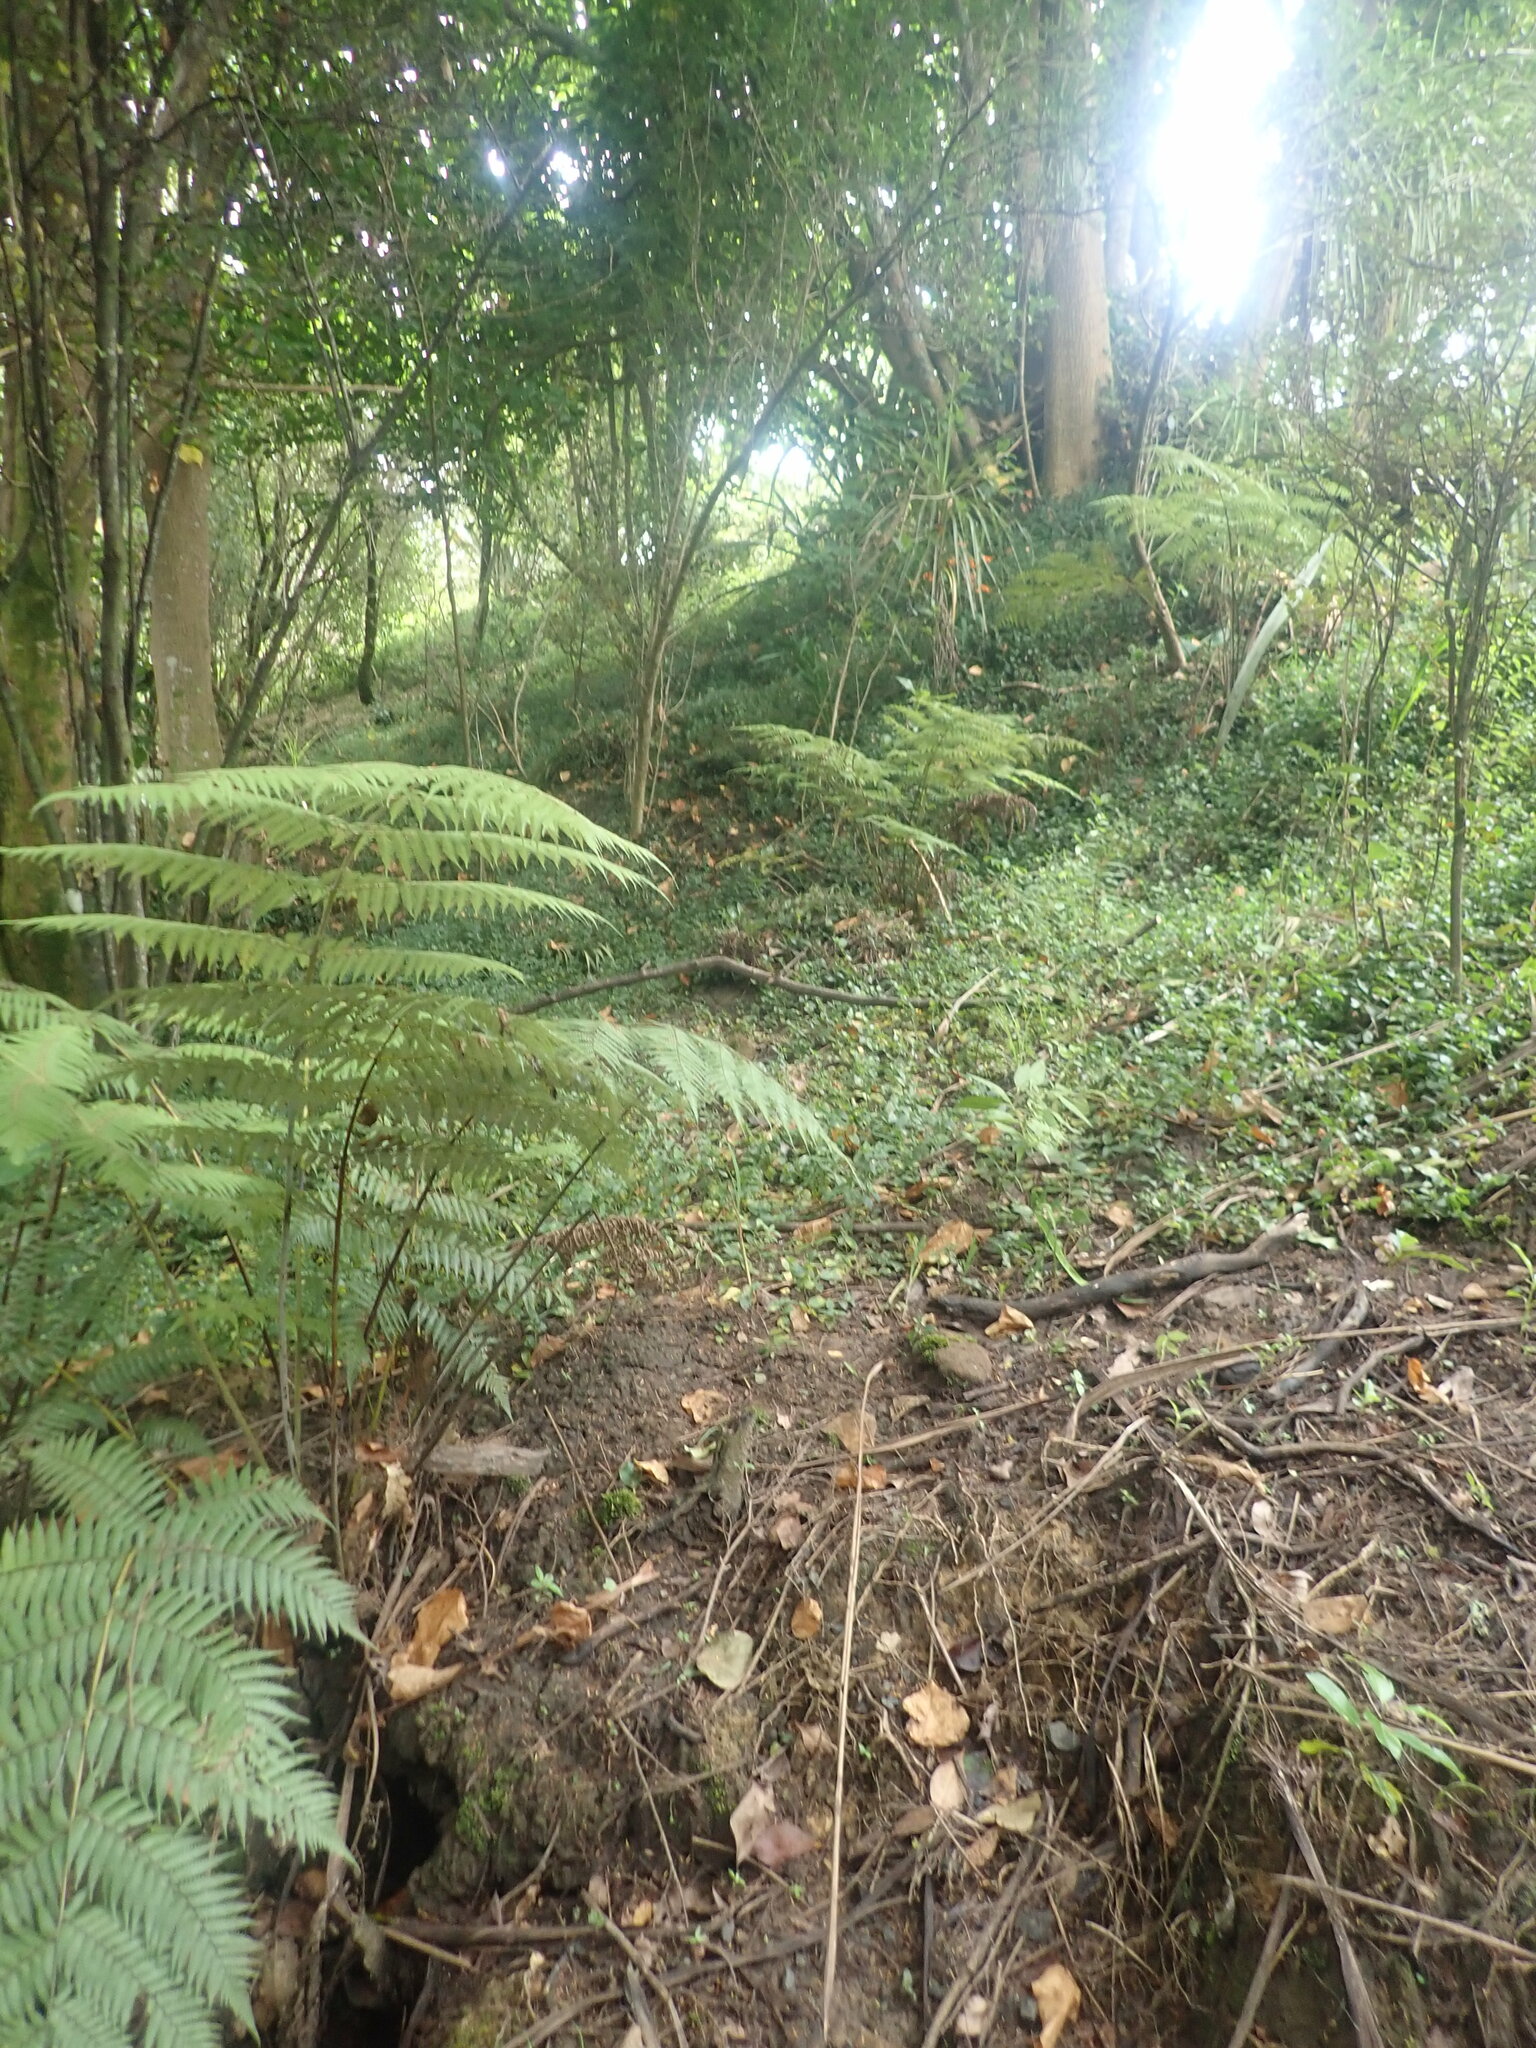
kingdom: Plantae
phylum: Tracheophyta
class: Liliopsida
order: Commelinales
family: Commelinaceae
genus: Tradescantia
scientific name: Tradescantia fluminensis
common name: Wandering-jew
